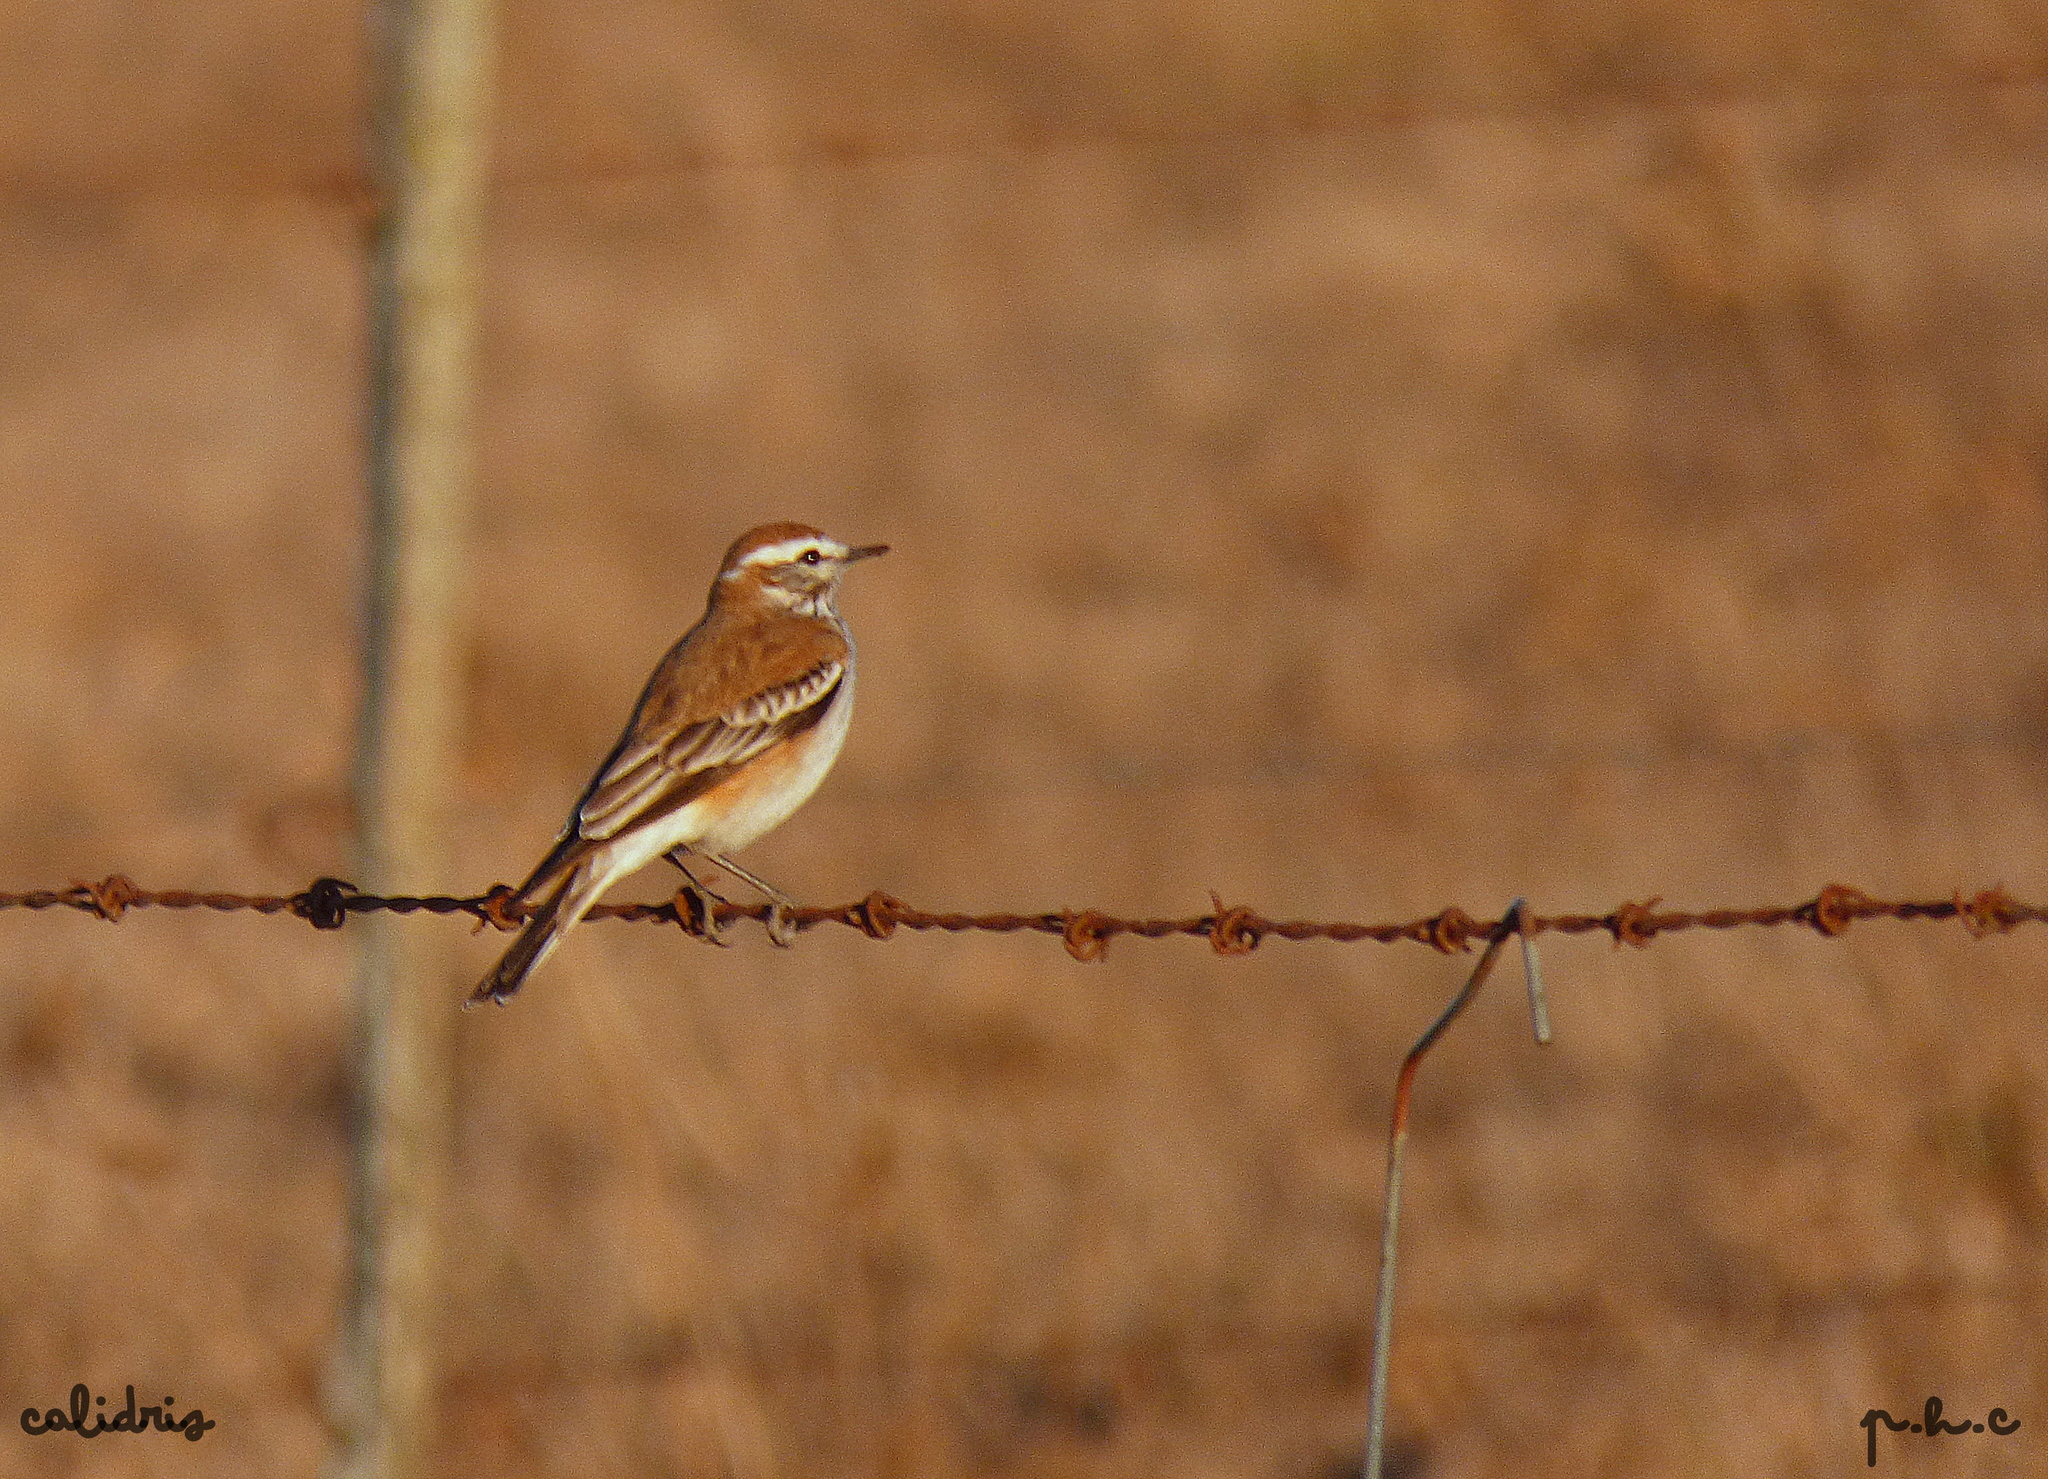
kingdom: Animalia
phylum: Chordata
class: Aves
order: Passeriformes
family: Tyrannidae
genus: Xolmis
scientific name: Xolmis rubetra
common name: Rusty-backed monjita
